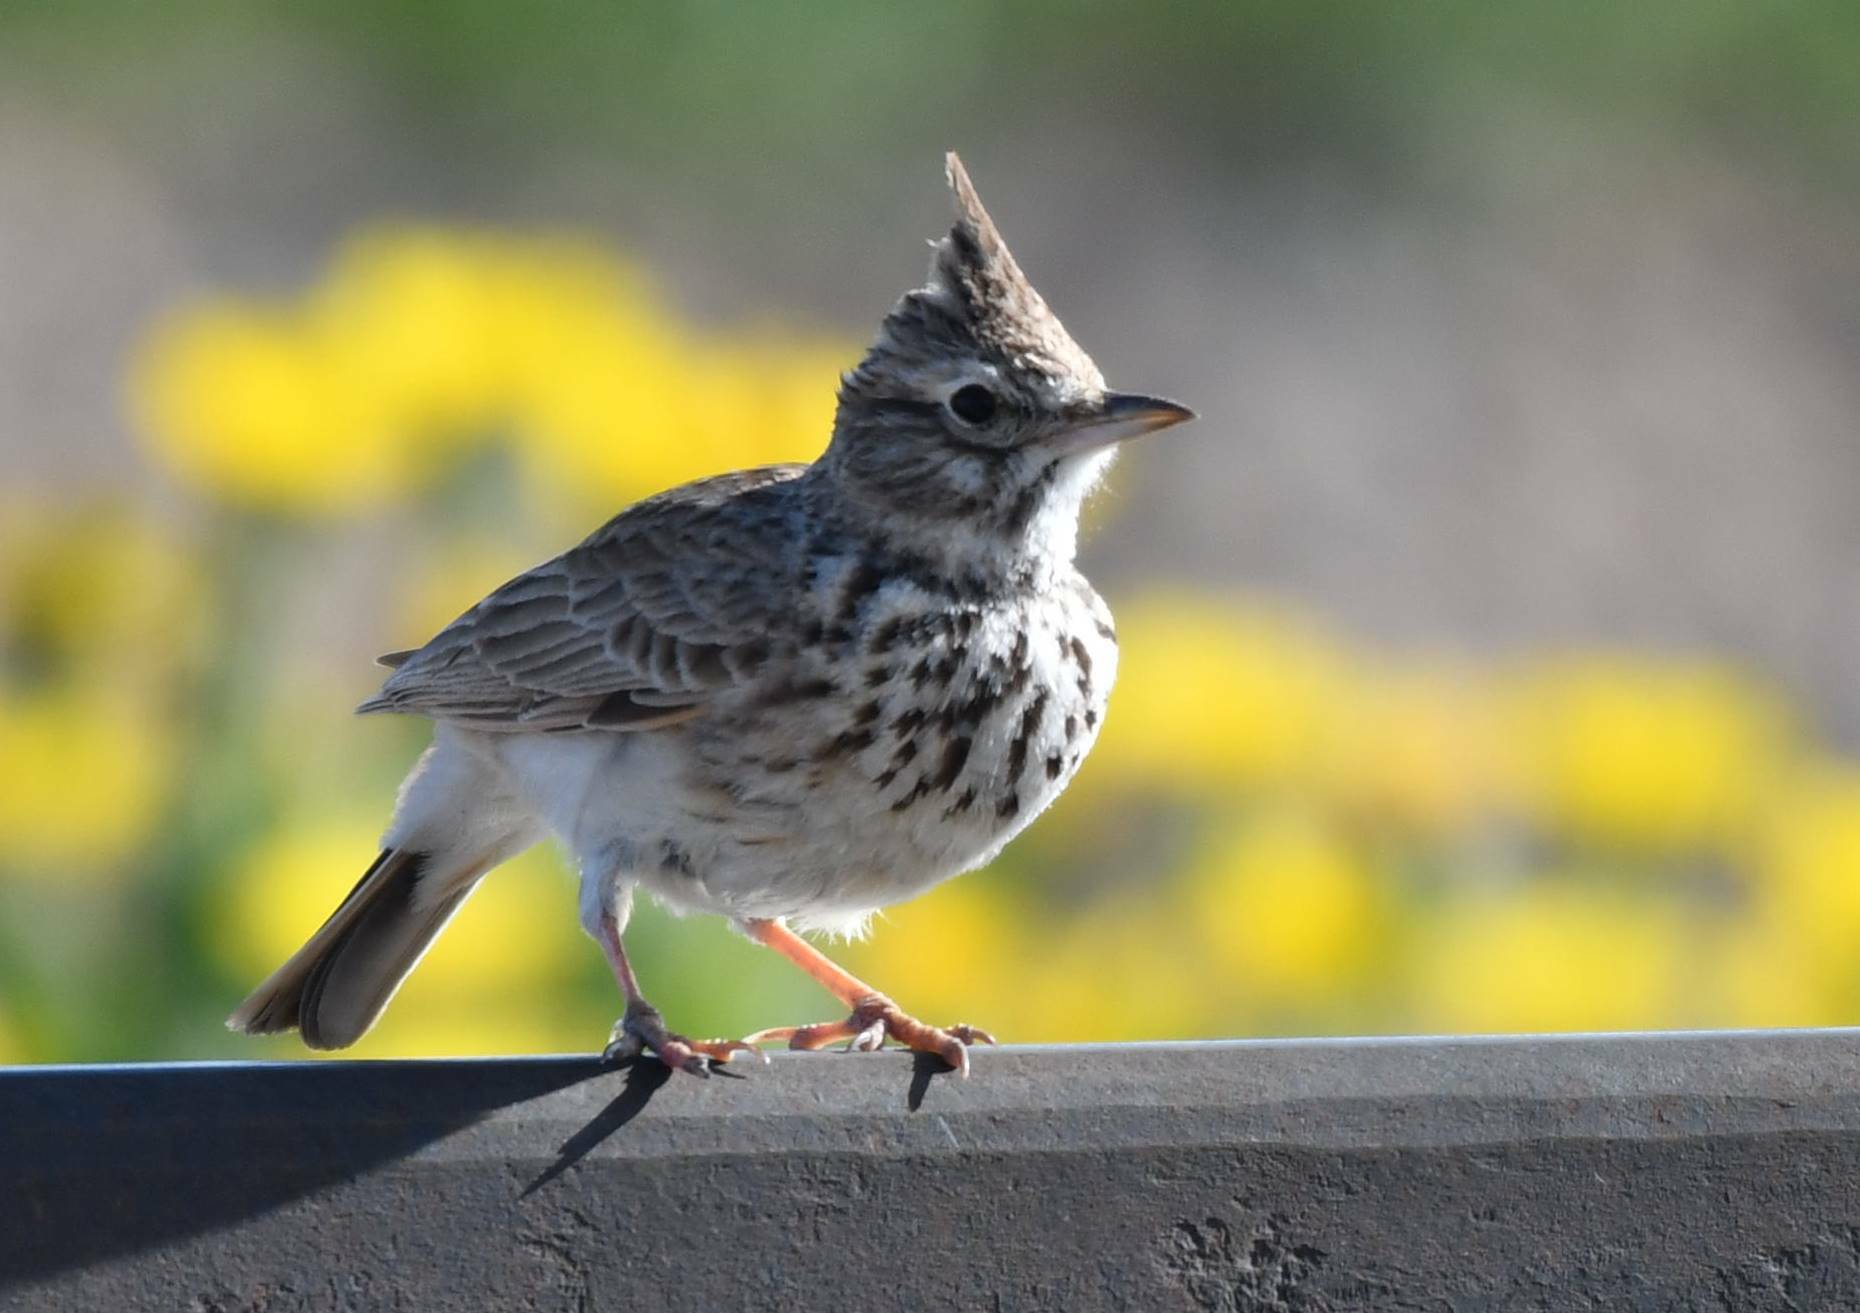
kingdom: Animalia
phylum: Chordata
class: Aves
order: Passeriformes
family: Alaudidae
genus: Galerida
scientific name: Galerida theklae
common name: Thekla lark
